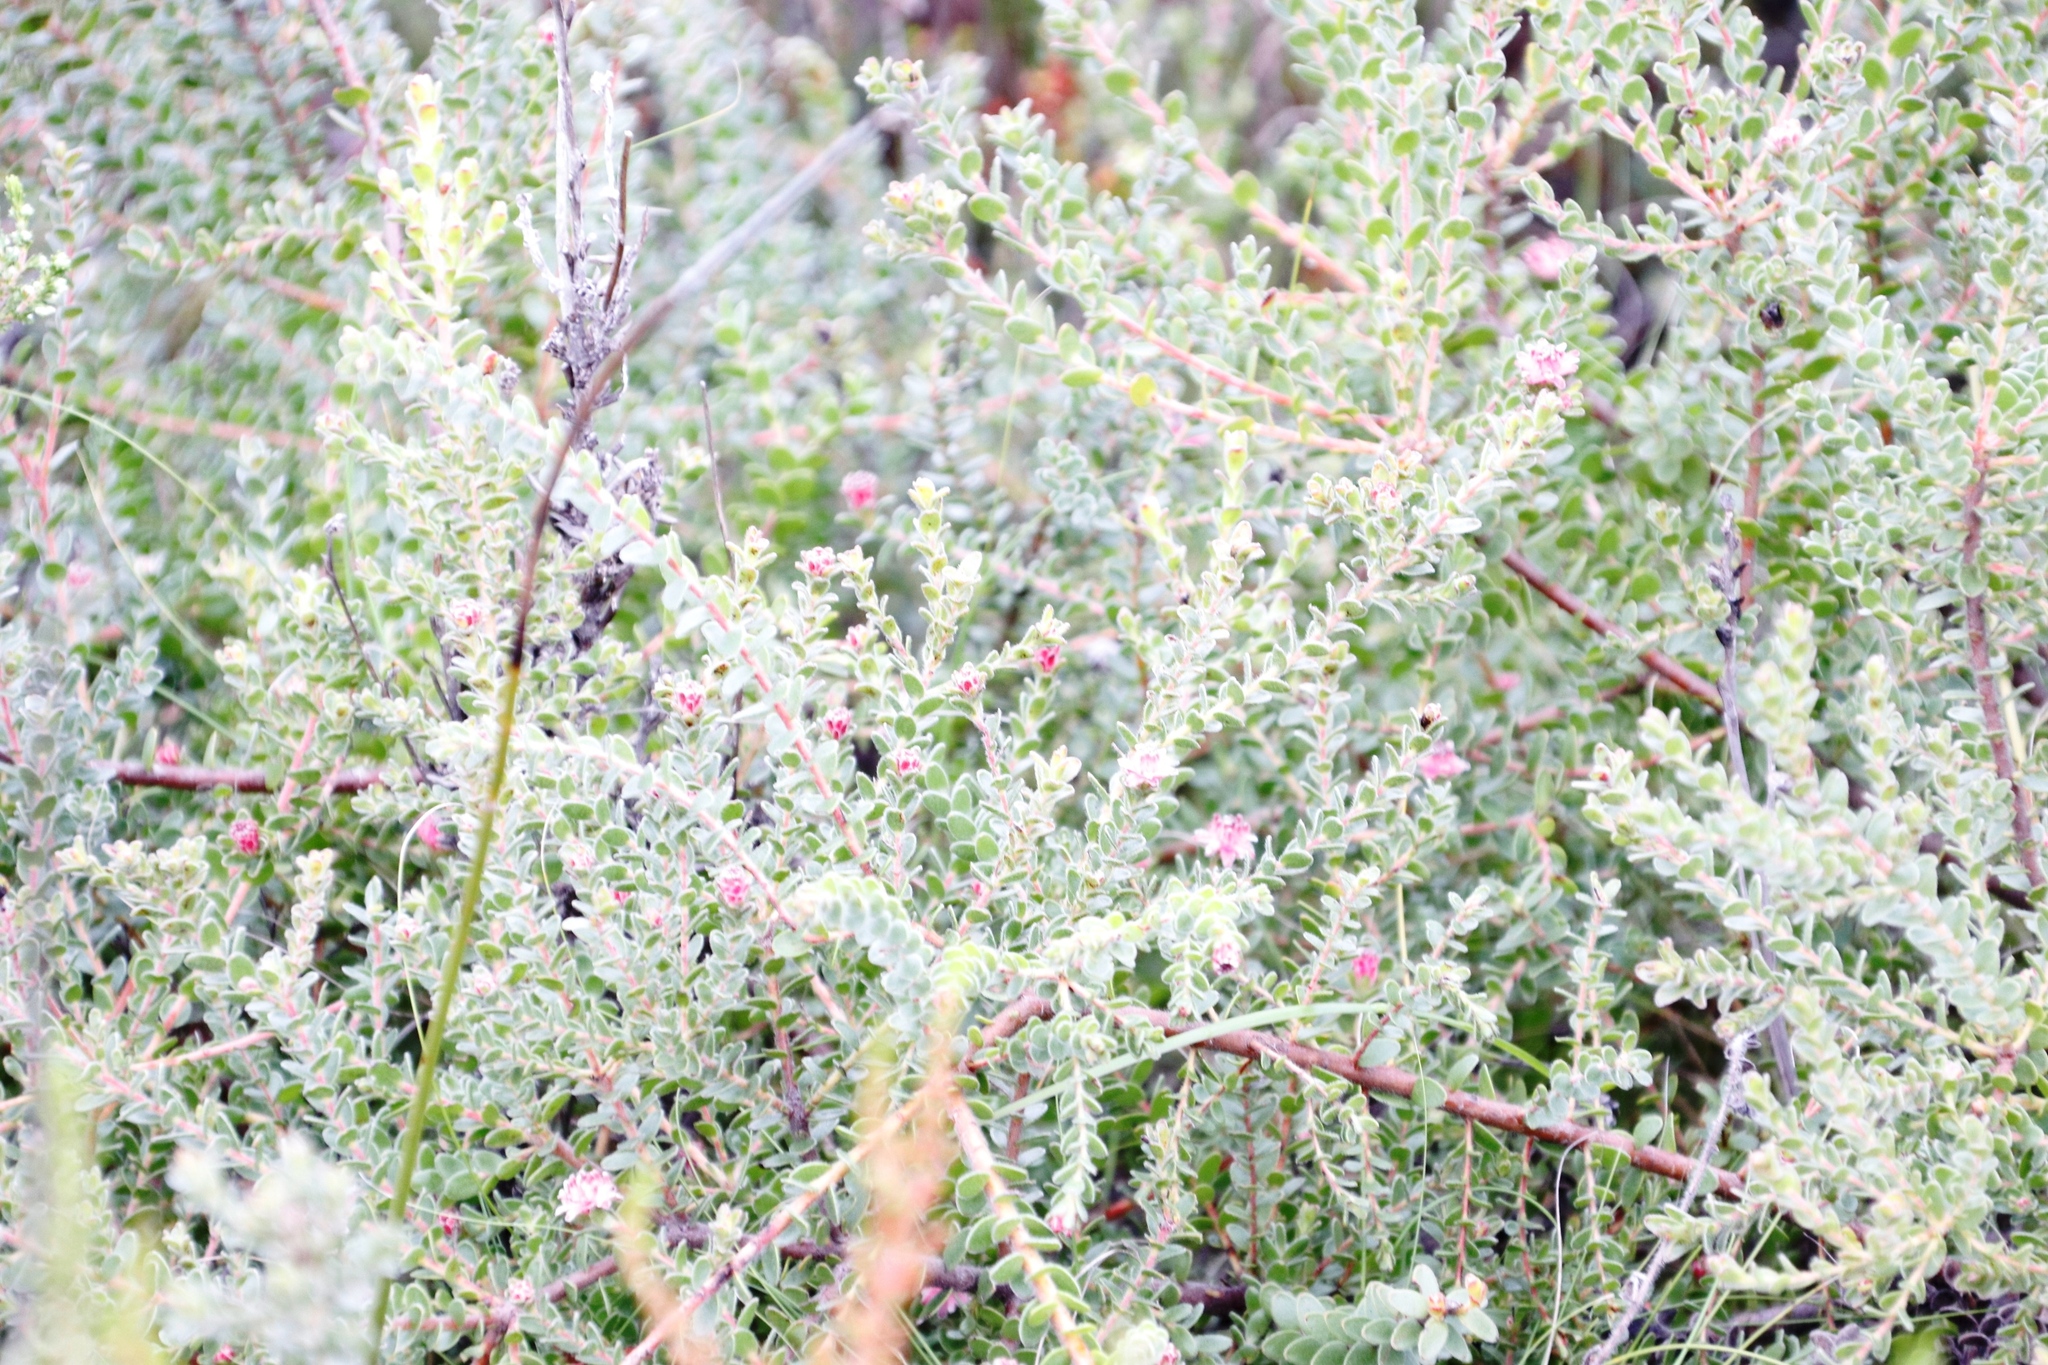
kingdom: Plantae
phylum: Tracheophyta
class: Magnoliopsida
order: Proteales
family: Proteaceae
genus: Diastella
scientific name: Diastella divaricata
